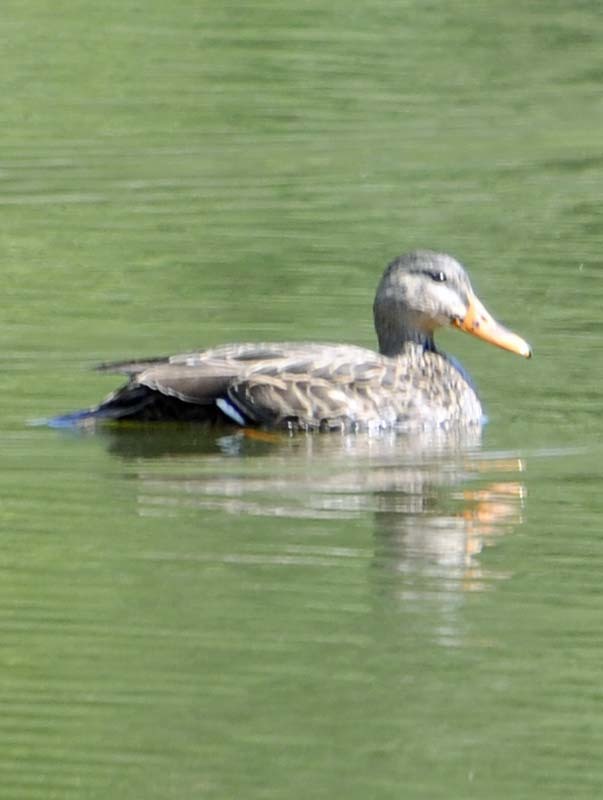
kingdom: Animalia
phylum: Chordata
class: Aves
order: Anseriformes
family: Anatidae
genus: Anas
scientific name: Anas diazi
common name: Mexican duck
